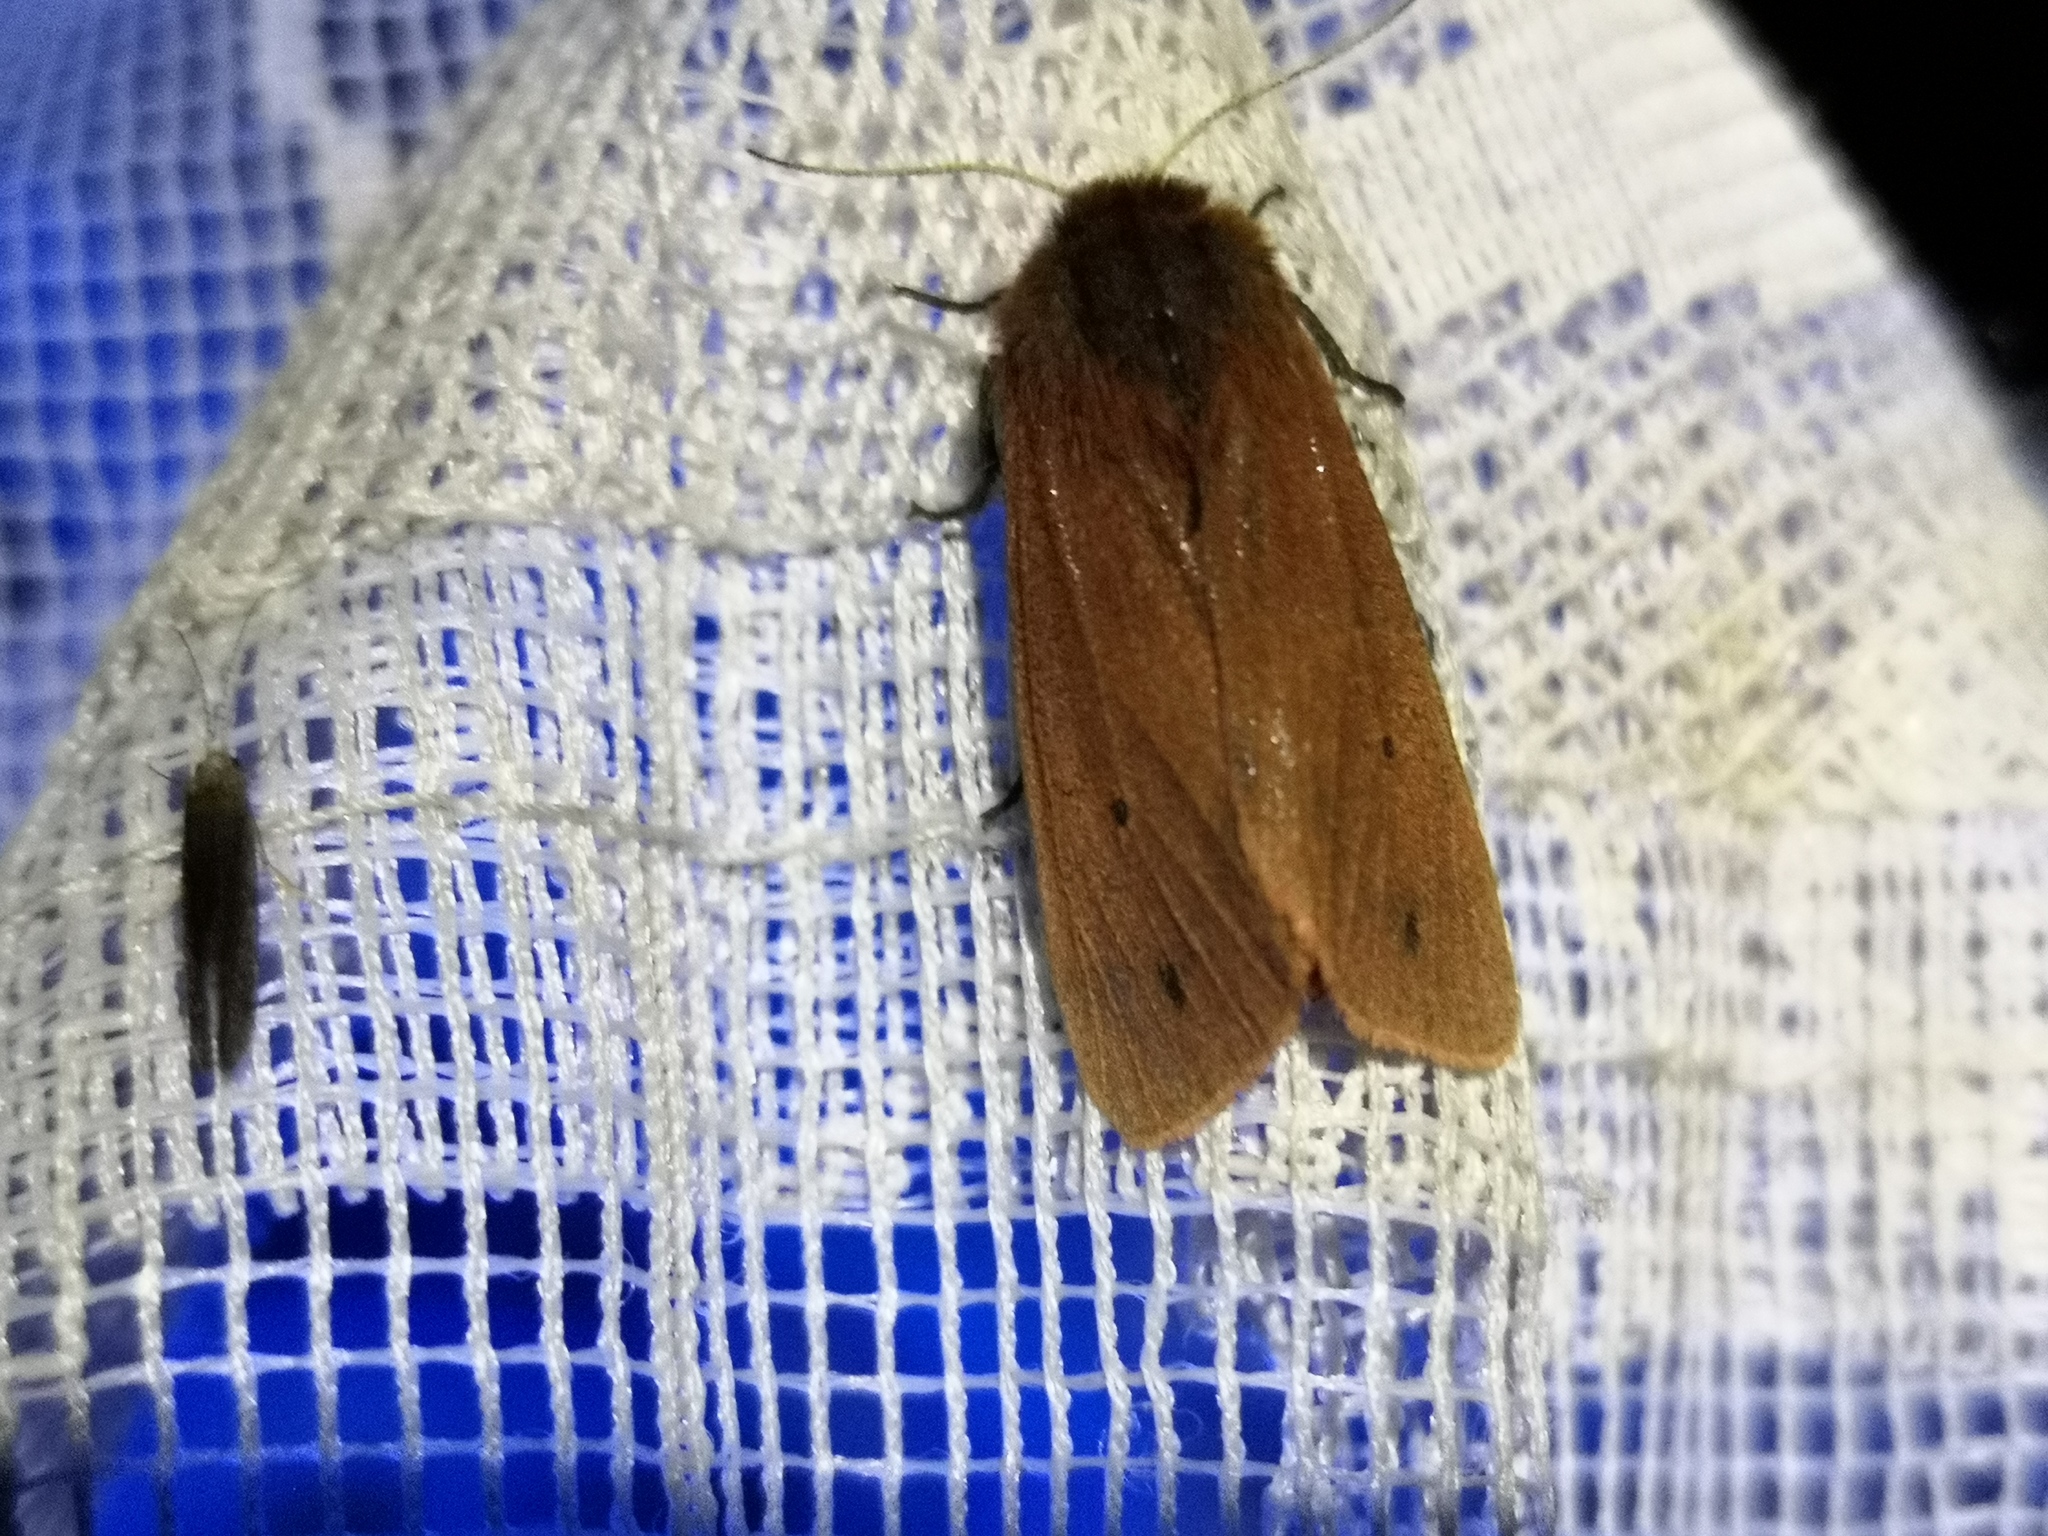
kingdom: Animalia
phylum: Arthropoda
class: Insecta
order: Lepidoptera
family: Erebidae
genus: Phragmatobia
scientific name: Phragmatobia fuliginosa
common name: Ruby tiger
